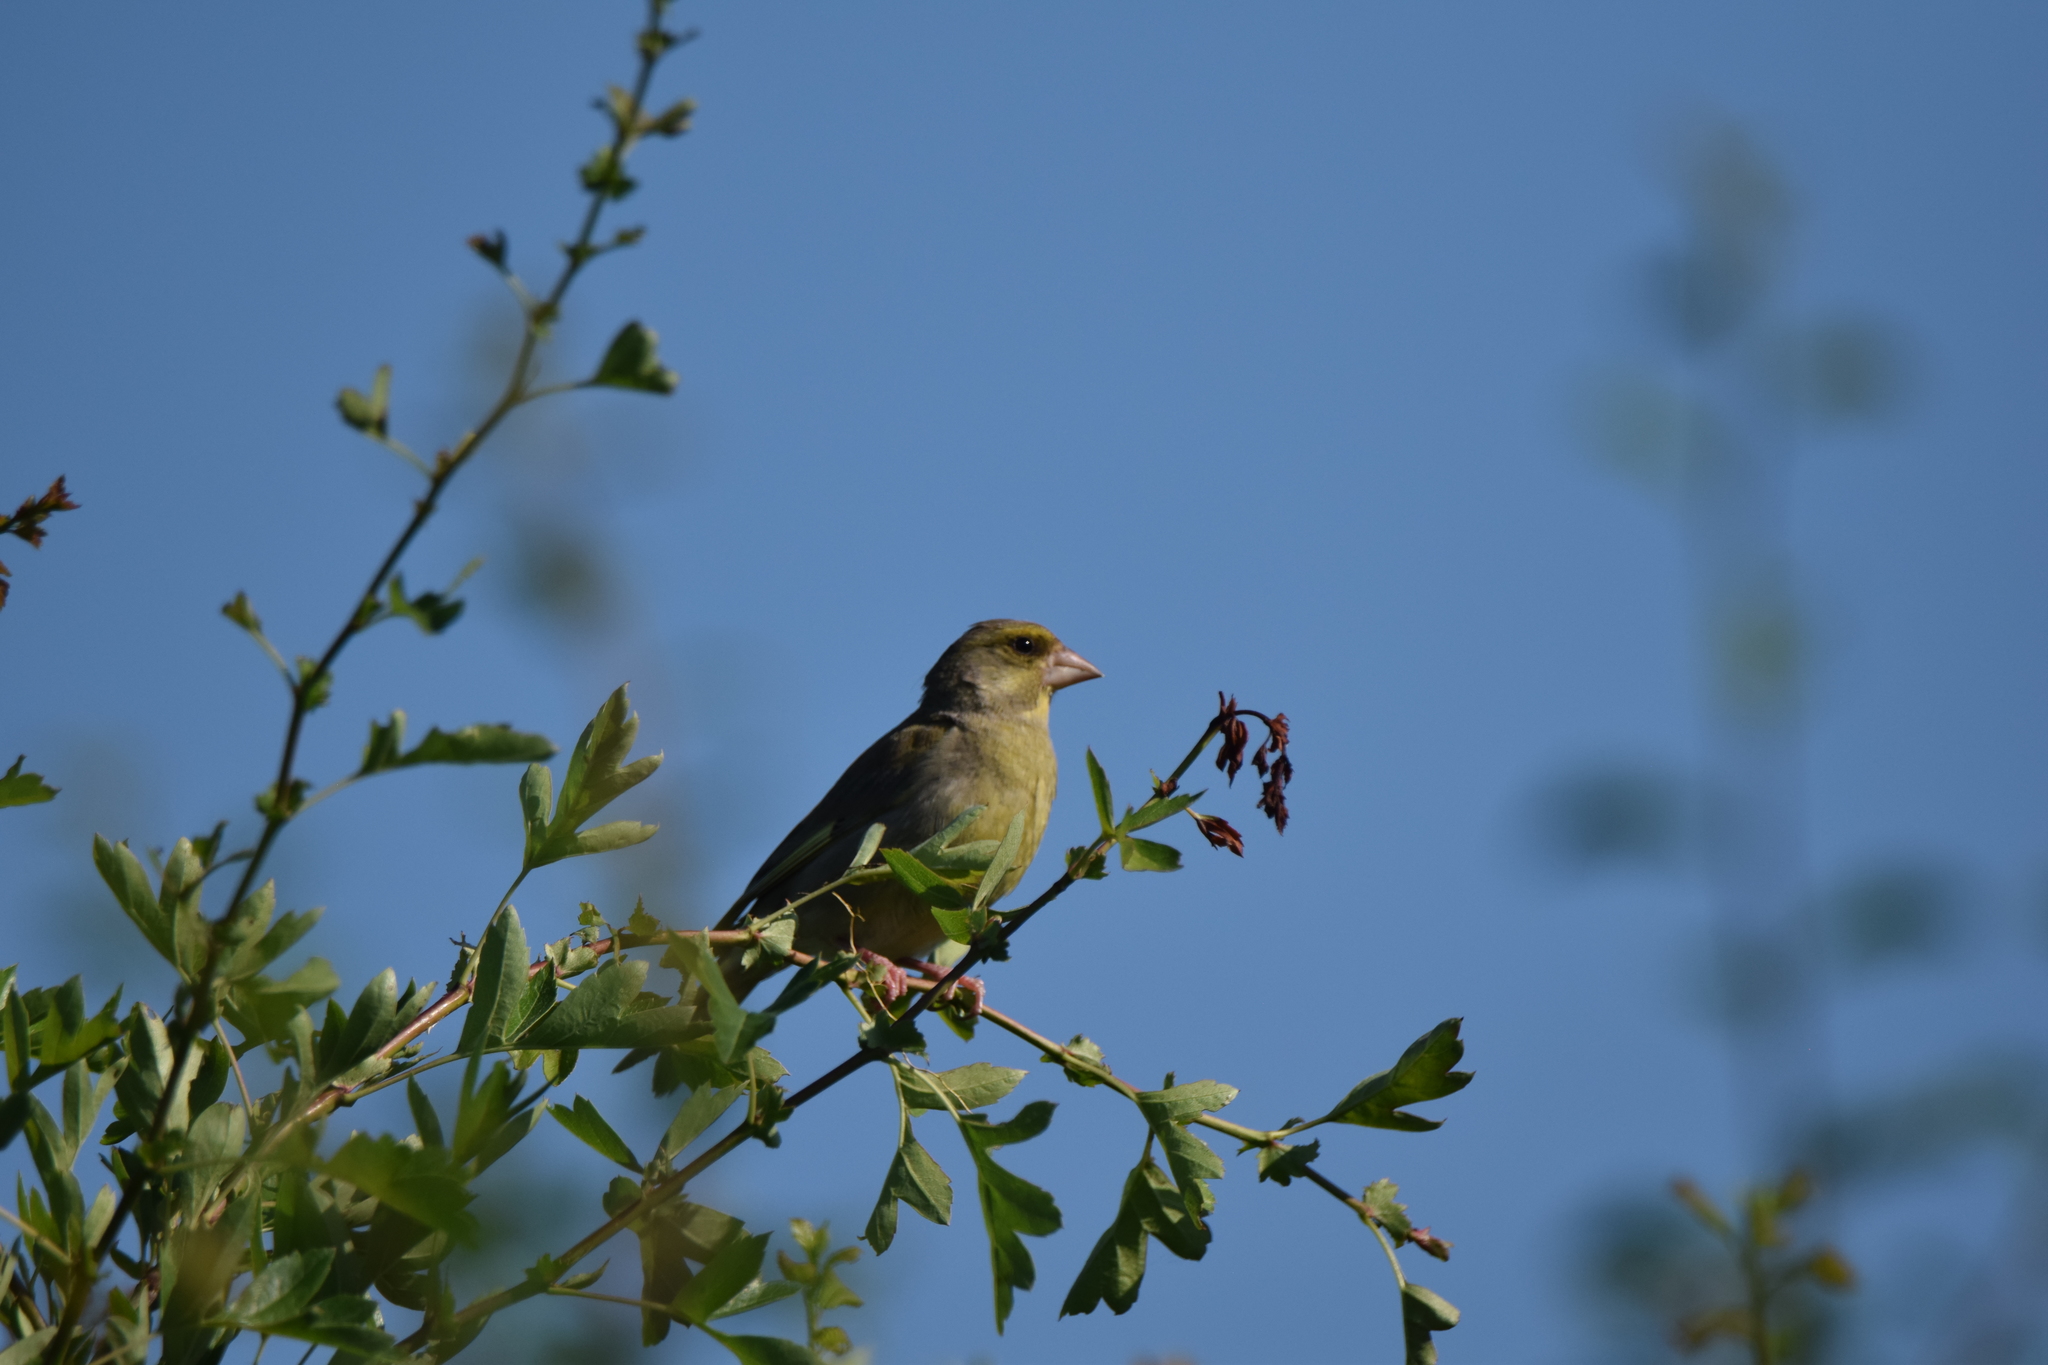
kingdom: Plantae
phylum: Tracheophyta
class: Liliopsida
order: Poales
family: Poaceae
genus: Chloris
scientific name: Chloris chloris
